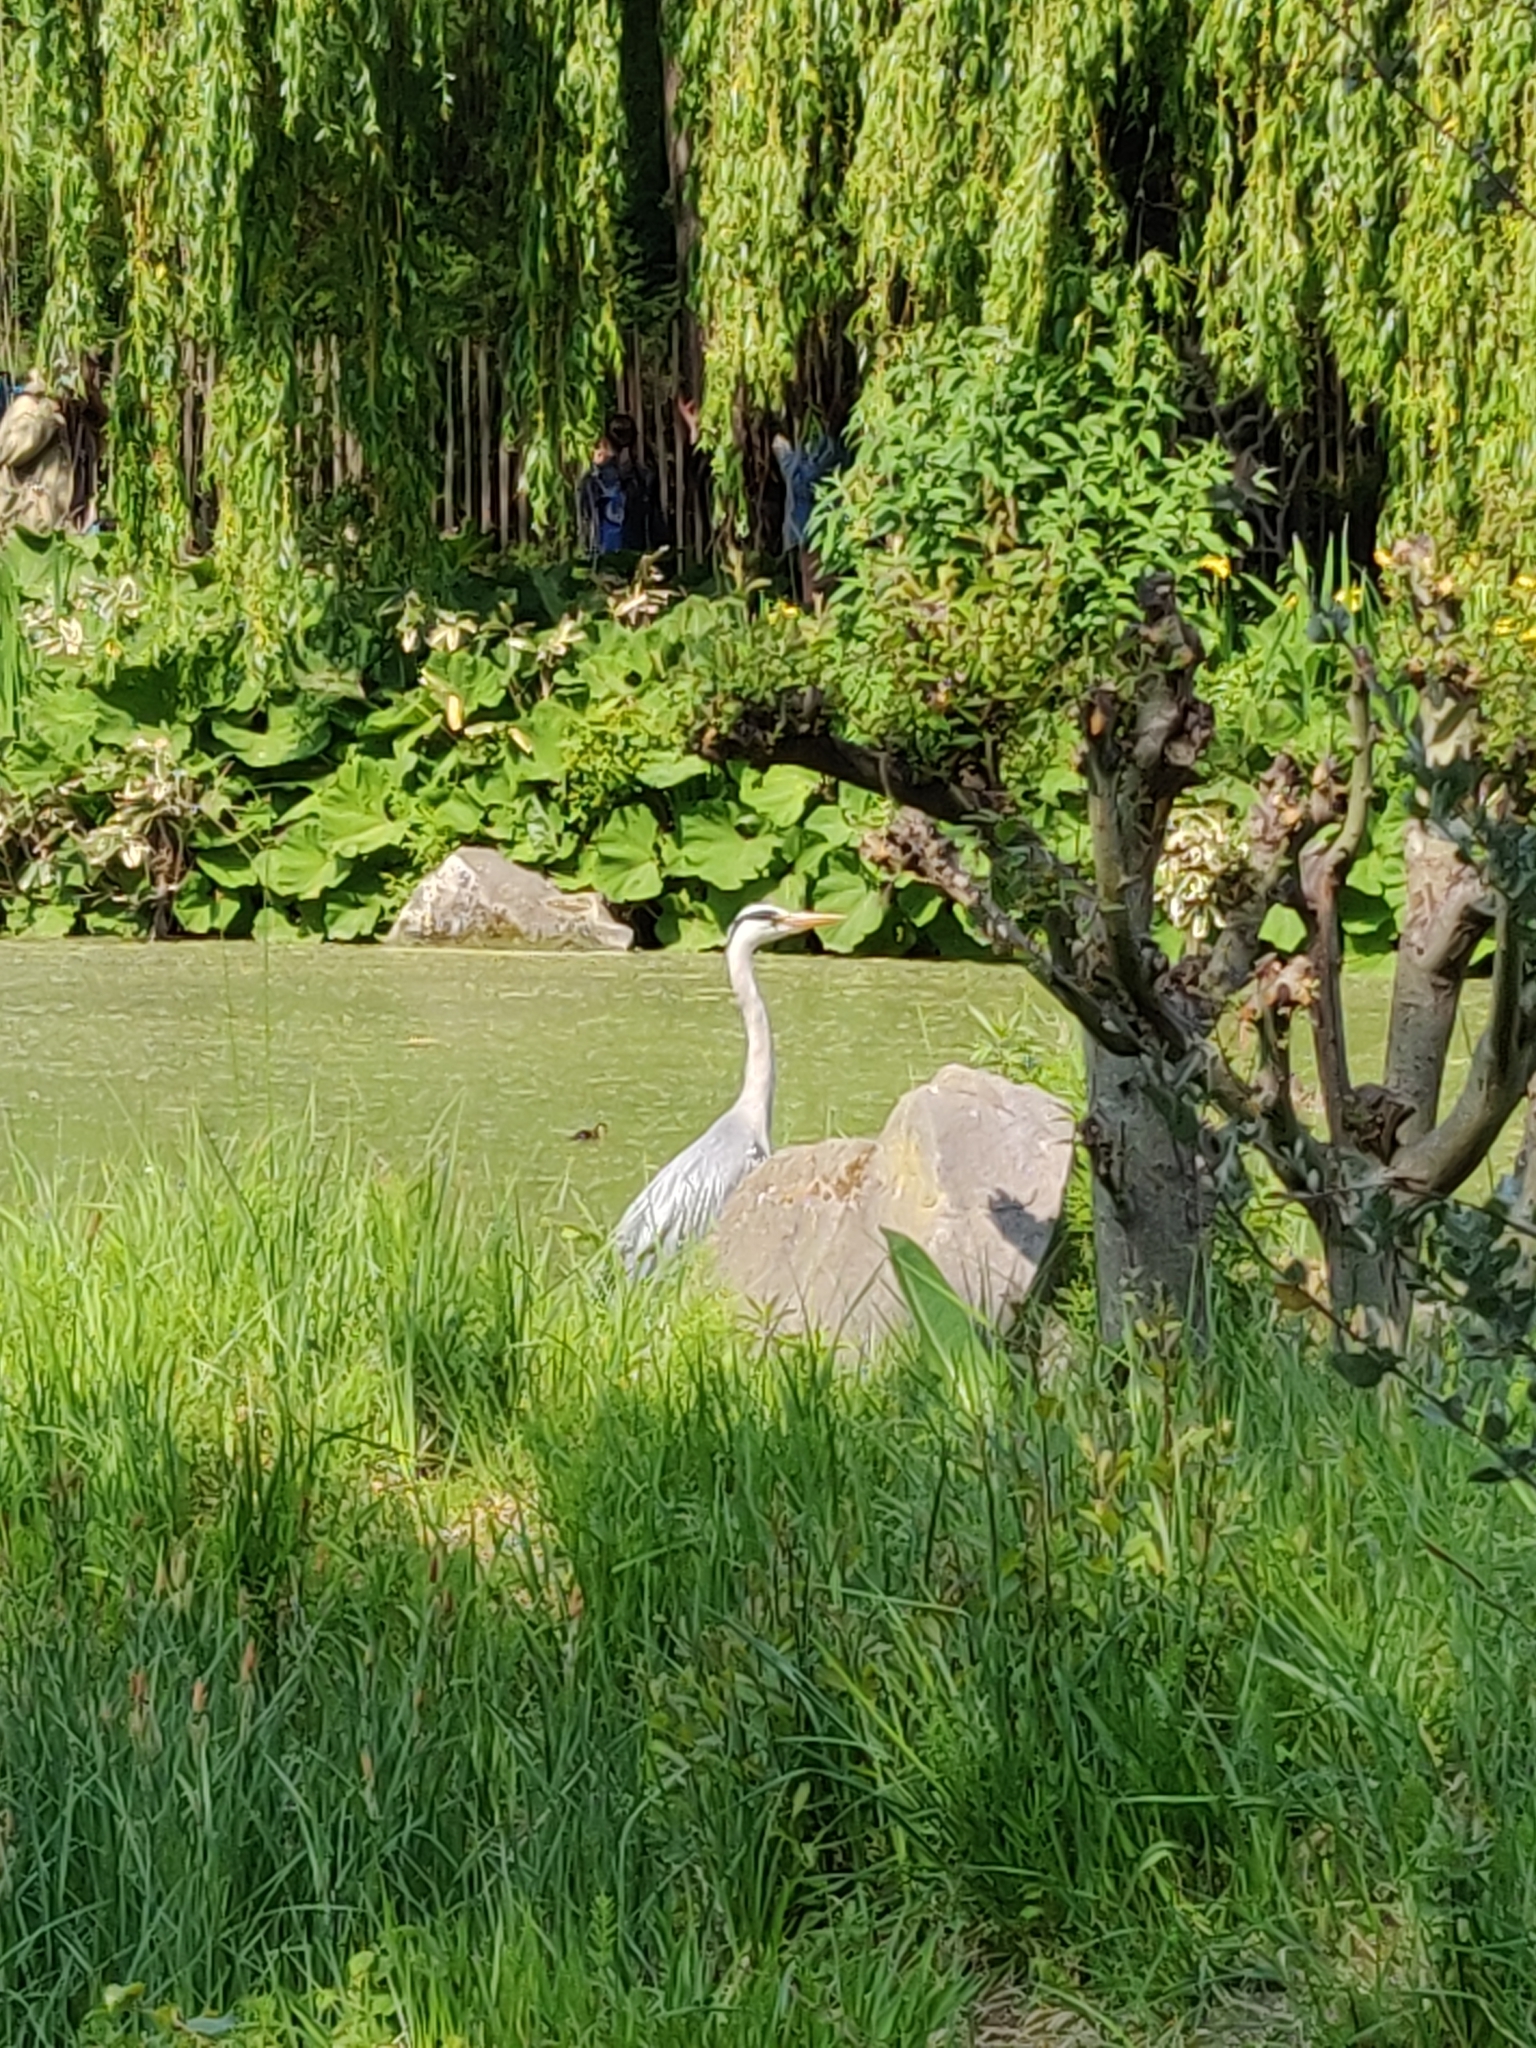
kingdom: Animalia
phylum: Chordata
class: Aves
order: Pelecaniformes
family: Ardeidae
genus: Ardea
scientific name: Ardea cinerea
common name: Grey heron
